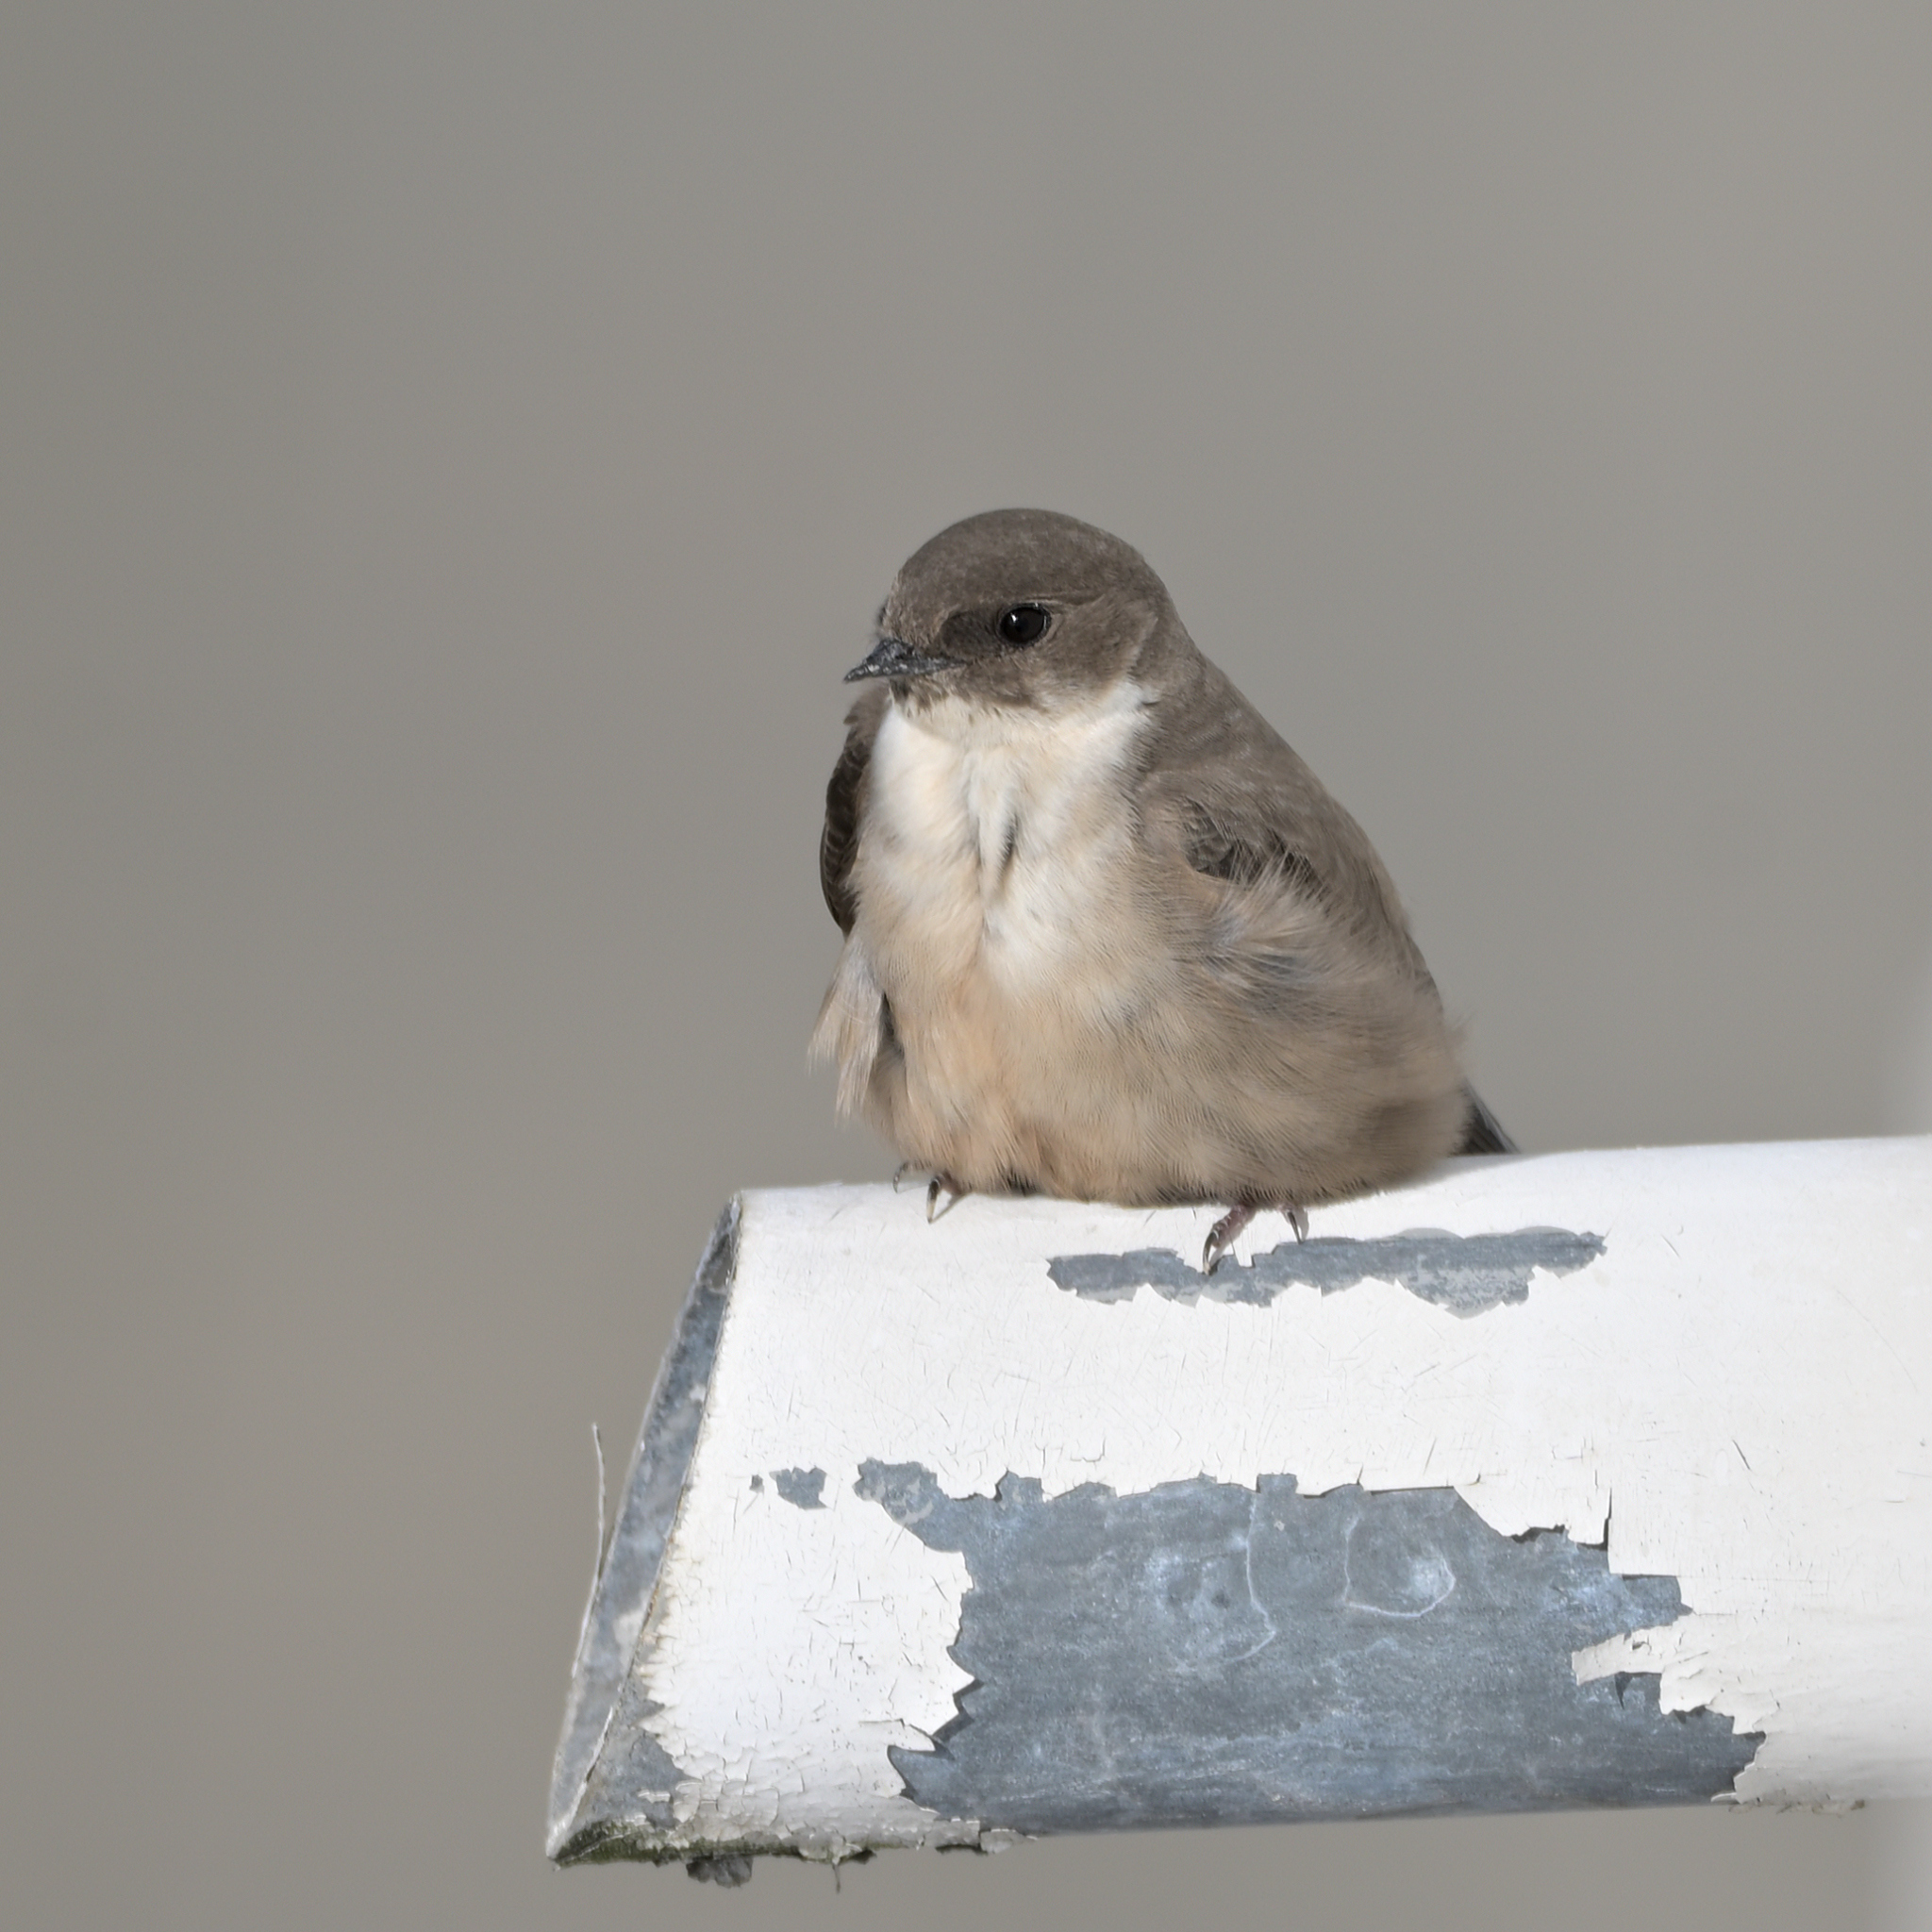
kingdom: Animalia
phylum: Chordata
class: Aves
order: Passeriformes
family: Hirundinidae
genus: Ptyonoprogne
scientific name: Ptyonoprogne rupestris
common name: Eurasian crag martin
